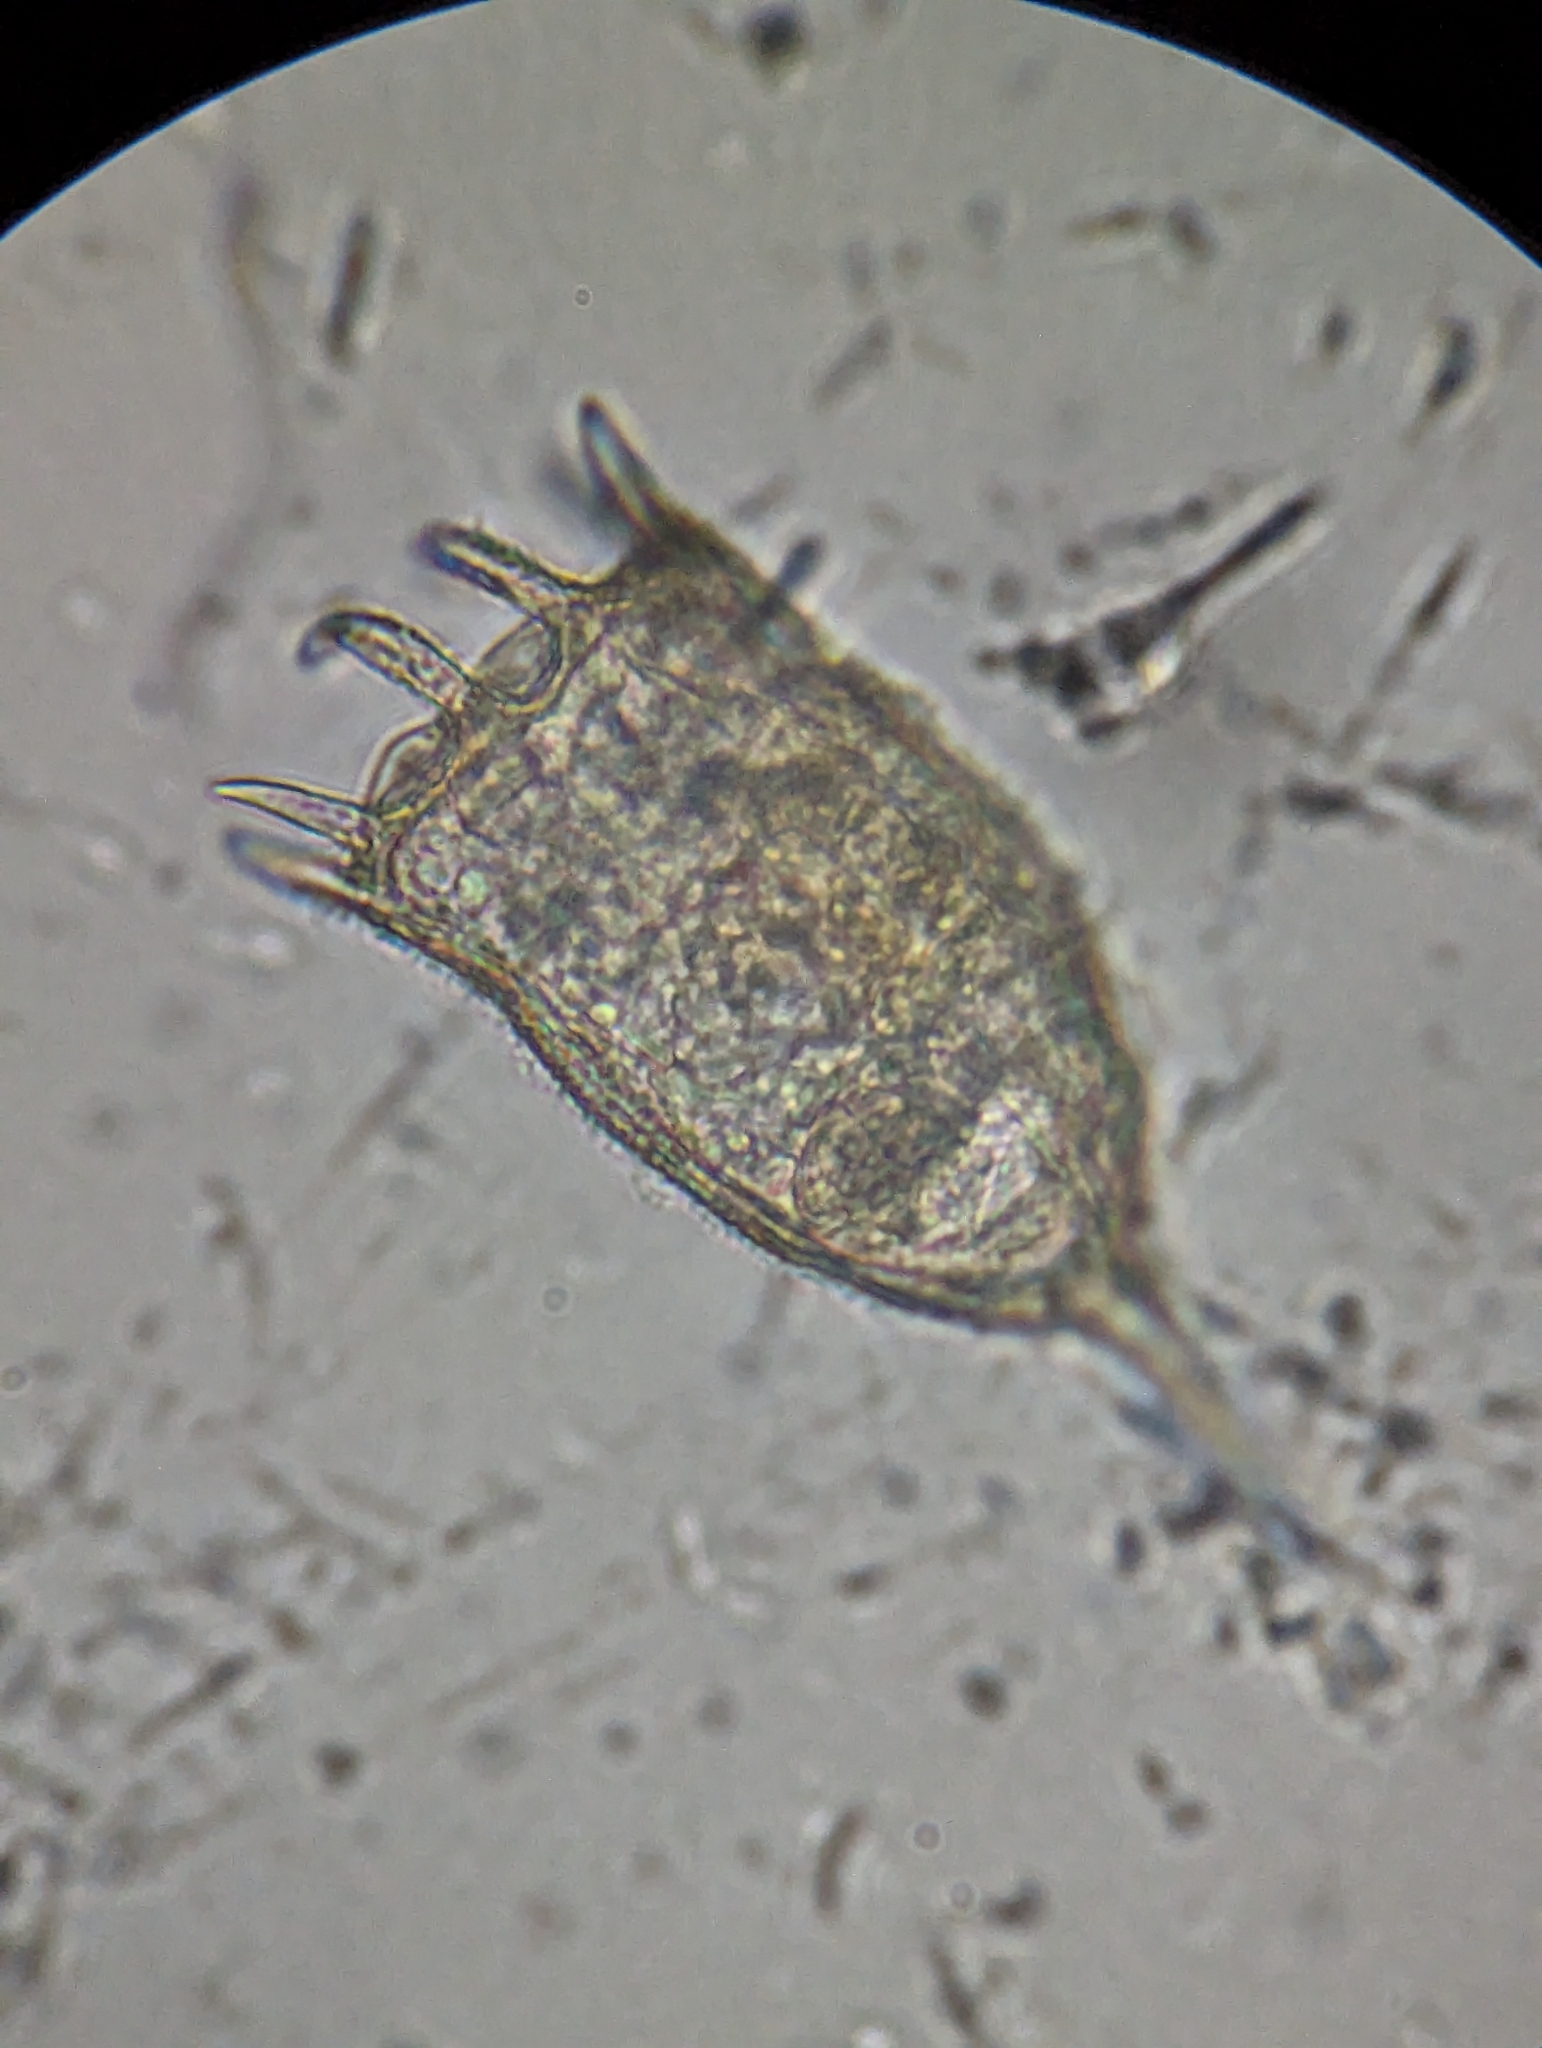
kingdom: Animalia
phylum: Rotifera
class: Eurotatoria
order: Ploima
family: Brachionidae
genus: Keratella
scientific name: Keratella cochlearis
